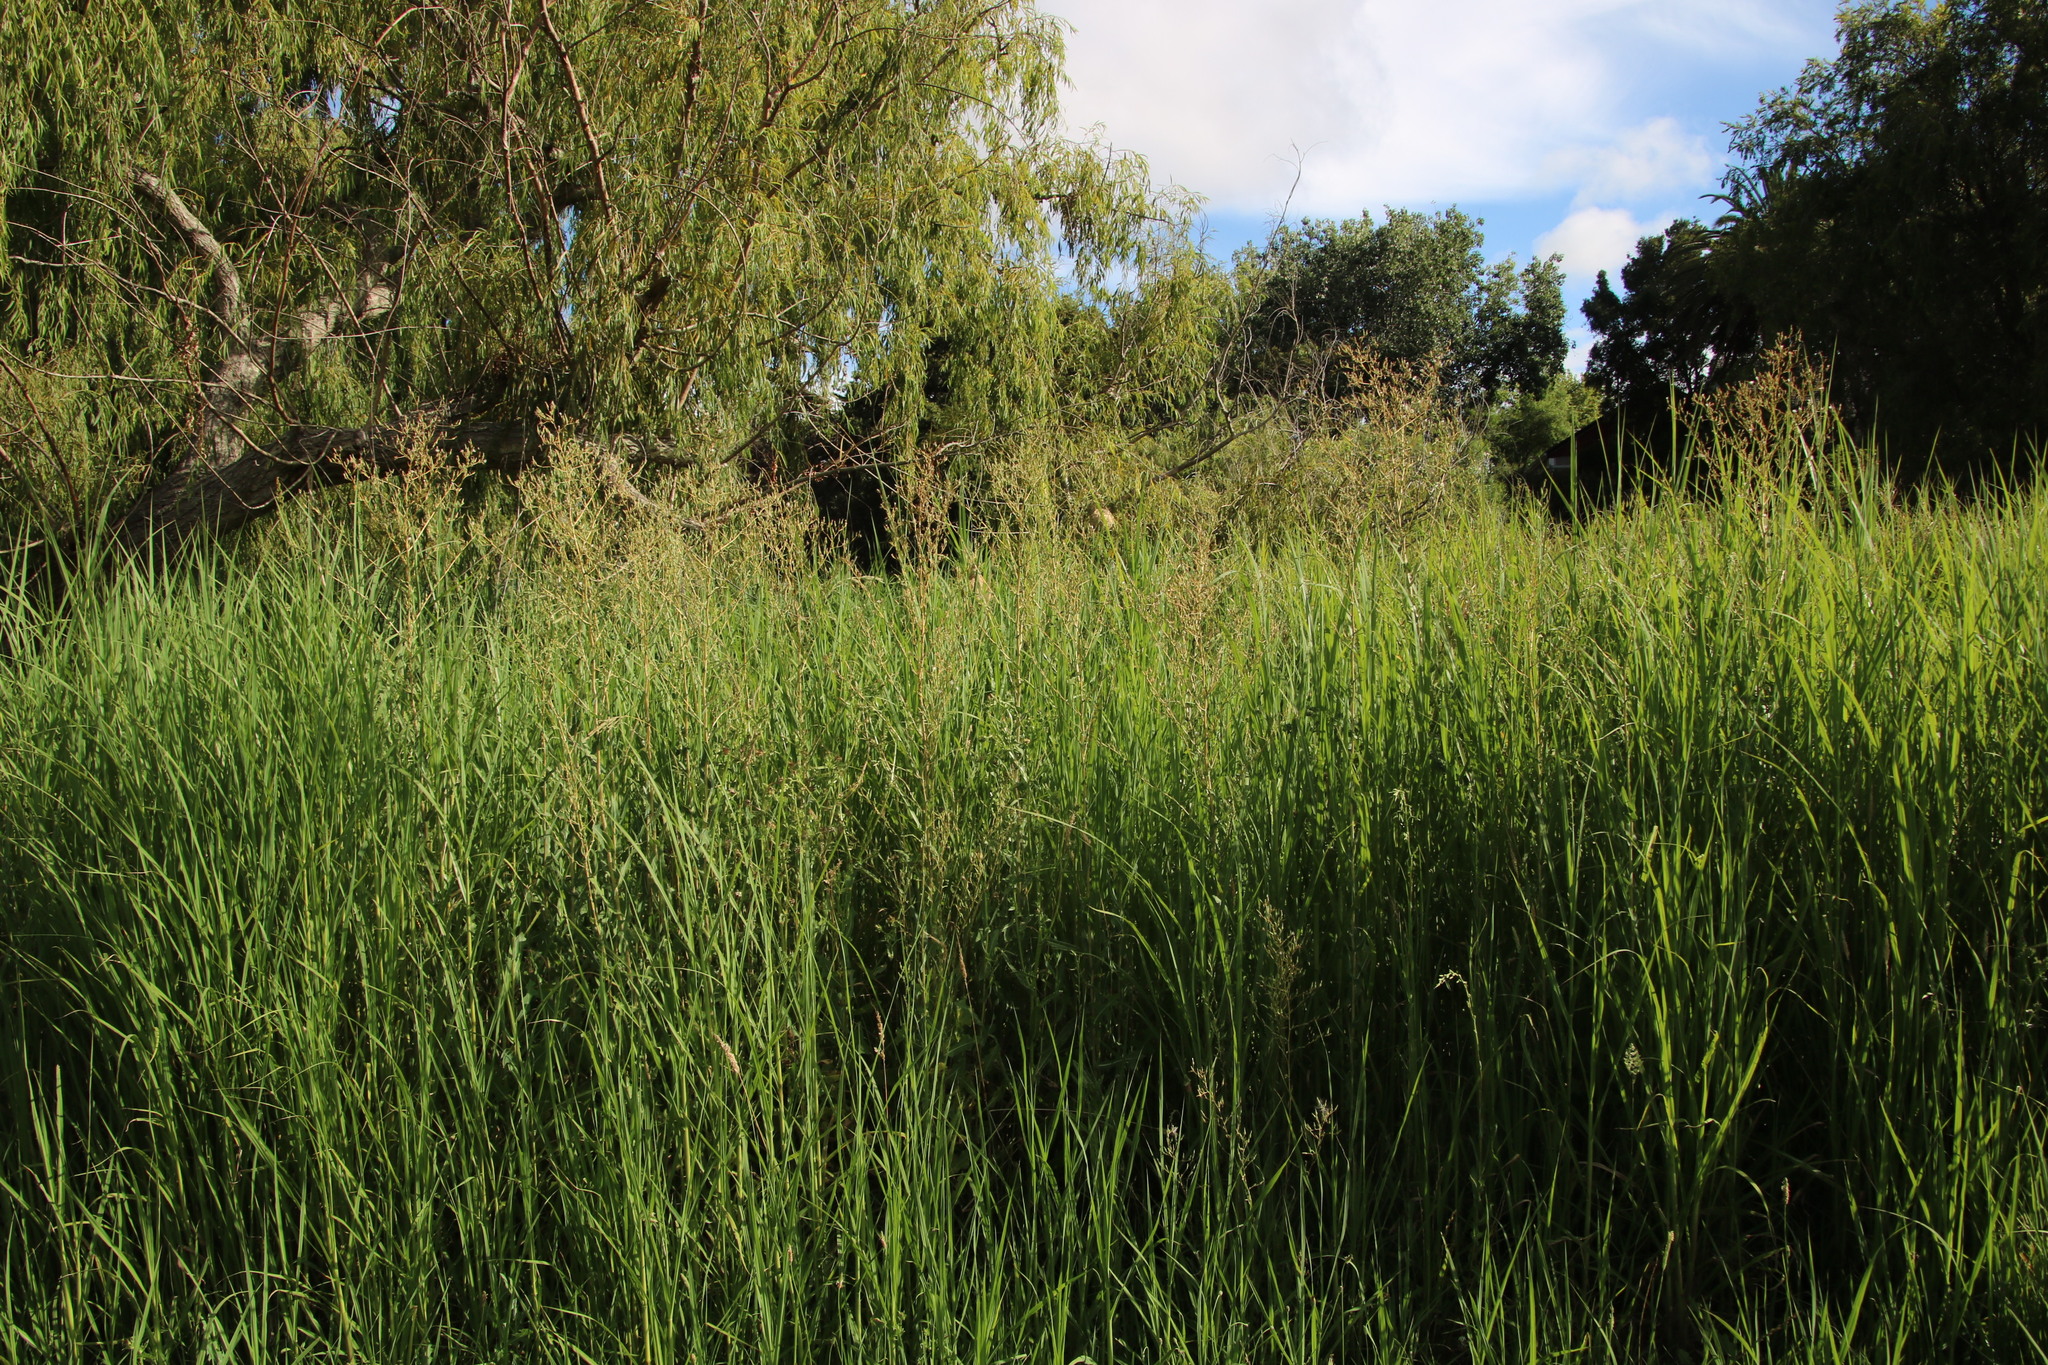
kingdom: Plantae
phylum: Tracheophyta
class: Magnoliopsida
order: Asterales
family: Asteraceae
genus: Lactuca
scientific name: Lactuca serriola
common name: Prickly lettuce
